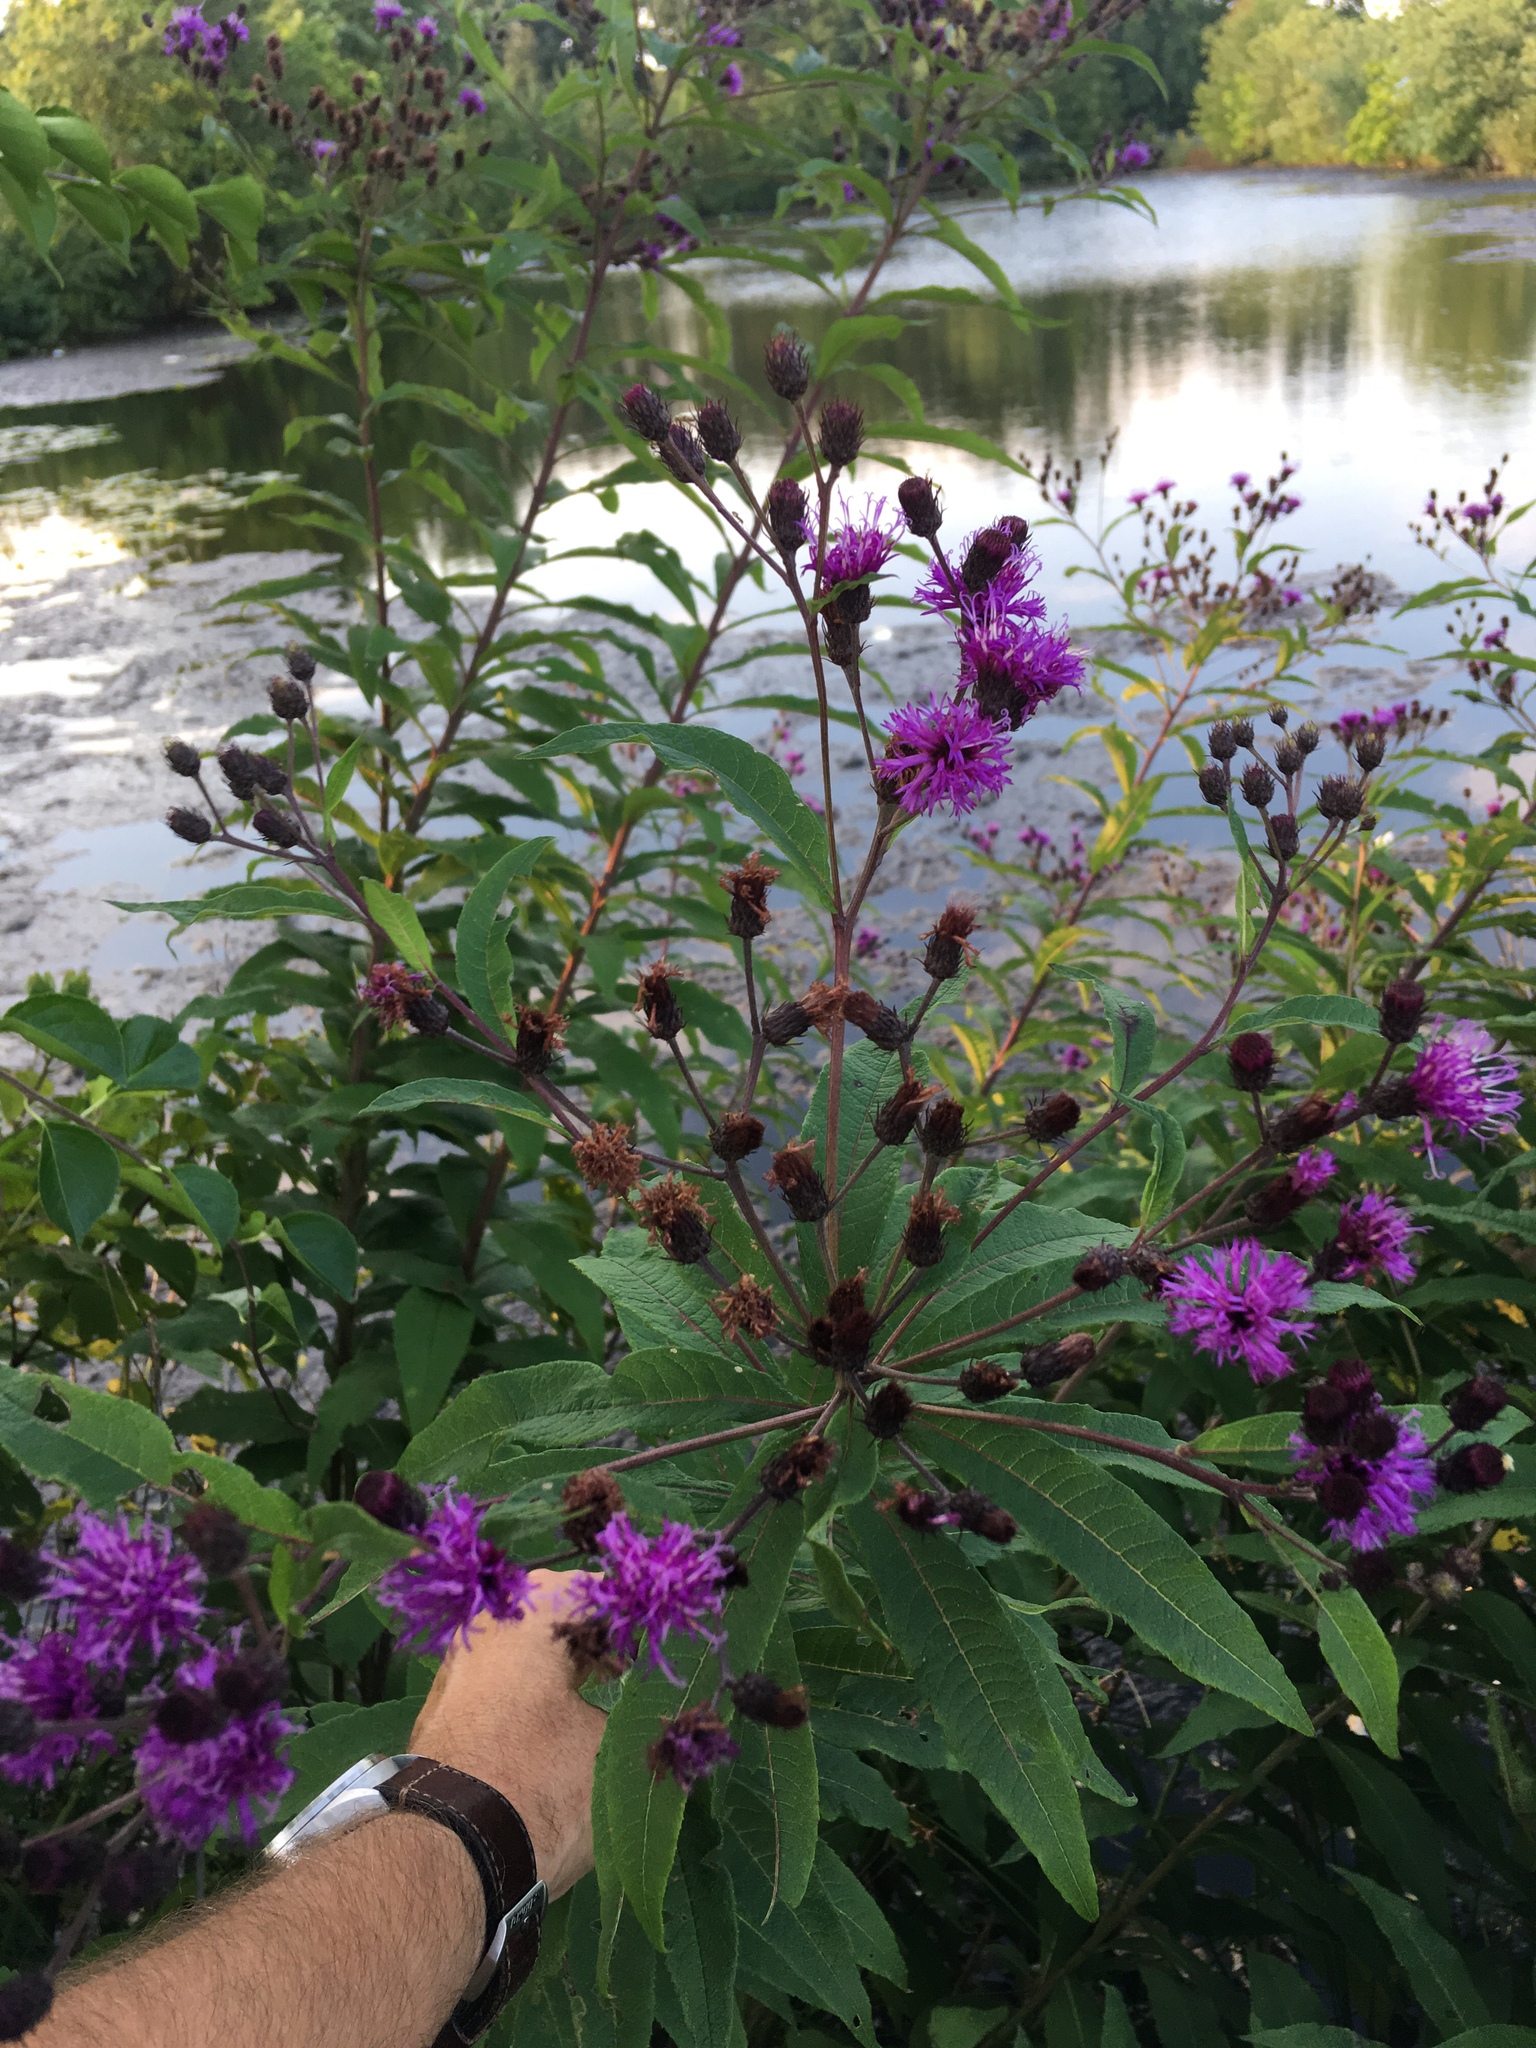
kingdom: Plantae
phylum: Tracheophyta
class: Magnoliopsida
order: Asterales
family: Asteraceae
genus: Vernonia
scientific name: Vernonia noveboracensis
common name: New york ironweed
